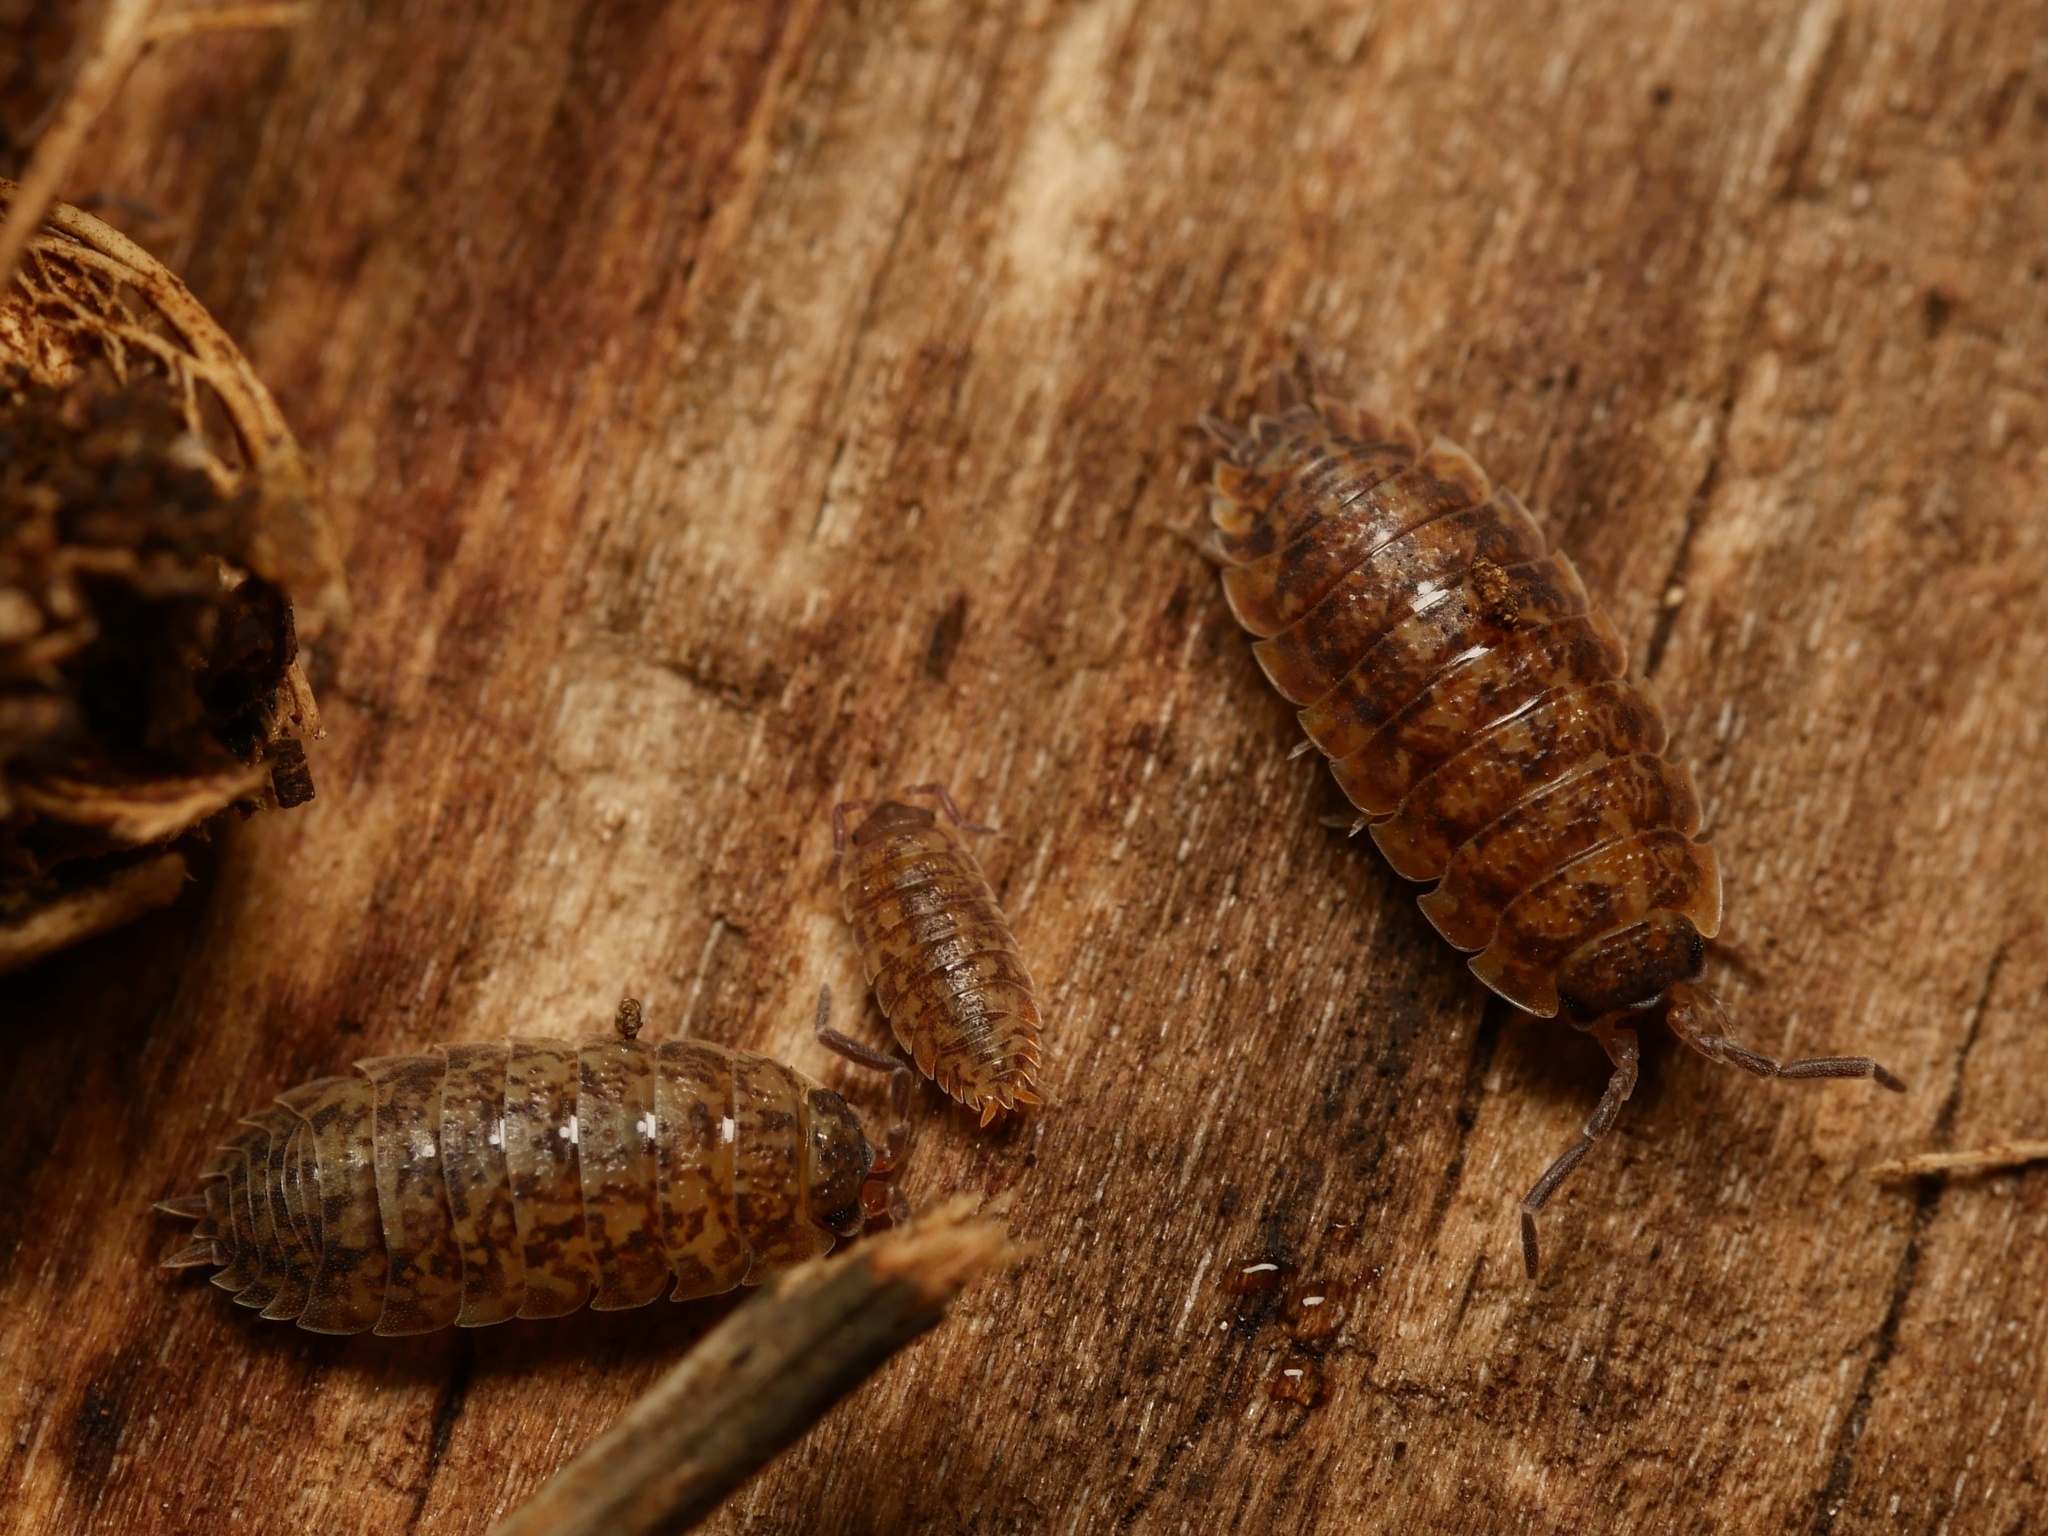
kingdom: Animalia
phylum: Arthropoda
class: Malacostraca
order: Isopoda
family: Porcellionidae
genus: Porcellio
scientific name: Porcellio scaber
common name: Common rough woodlouse
